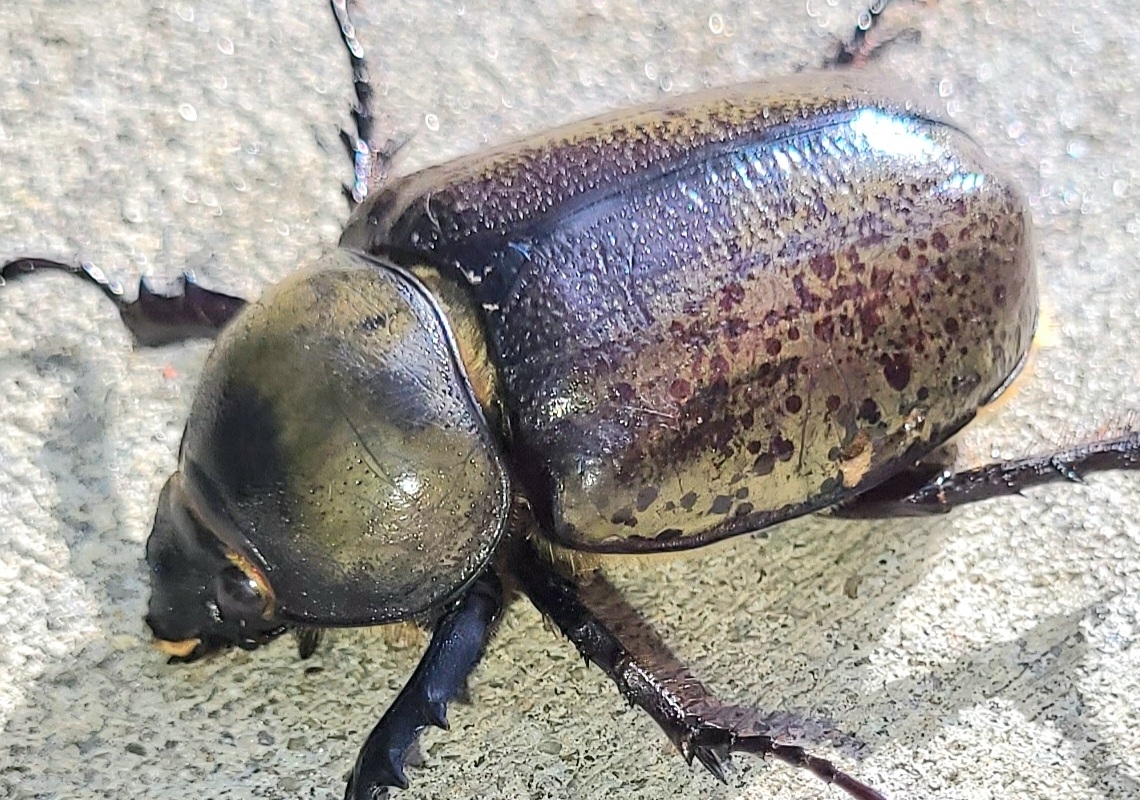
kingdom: Animalia
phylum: Arthropoda
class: Insecta
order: Coleoptera
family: Scarabaeidae
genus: Dynastes
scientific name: Dynastes tityus
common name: Eastern hercules beetle
